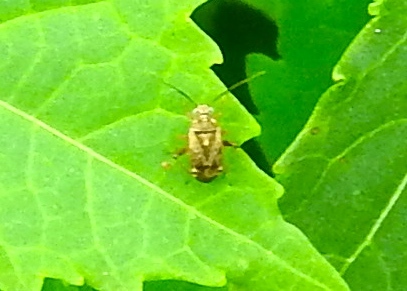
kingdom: Animalia
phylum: Arthropoda
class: Insecta
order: Hemiptera
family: Miridae
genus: Polymerus
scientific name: Polymerus
